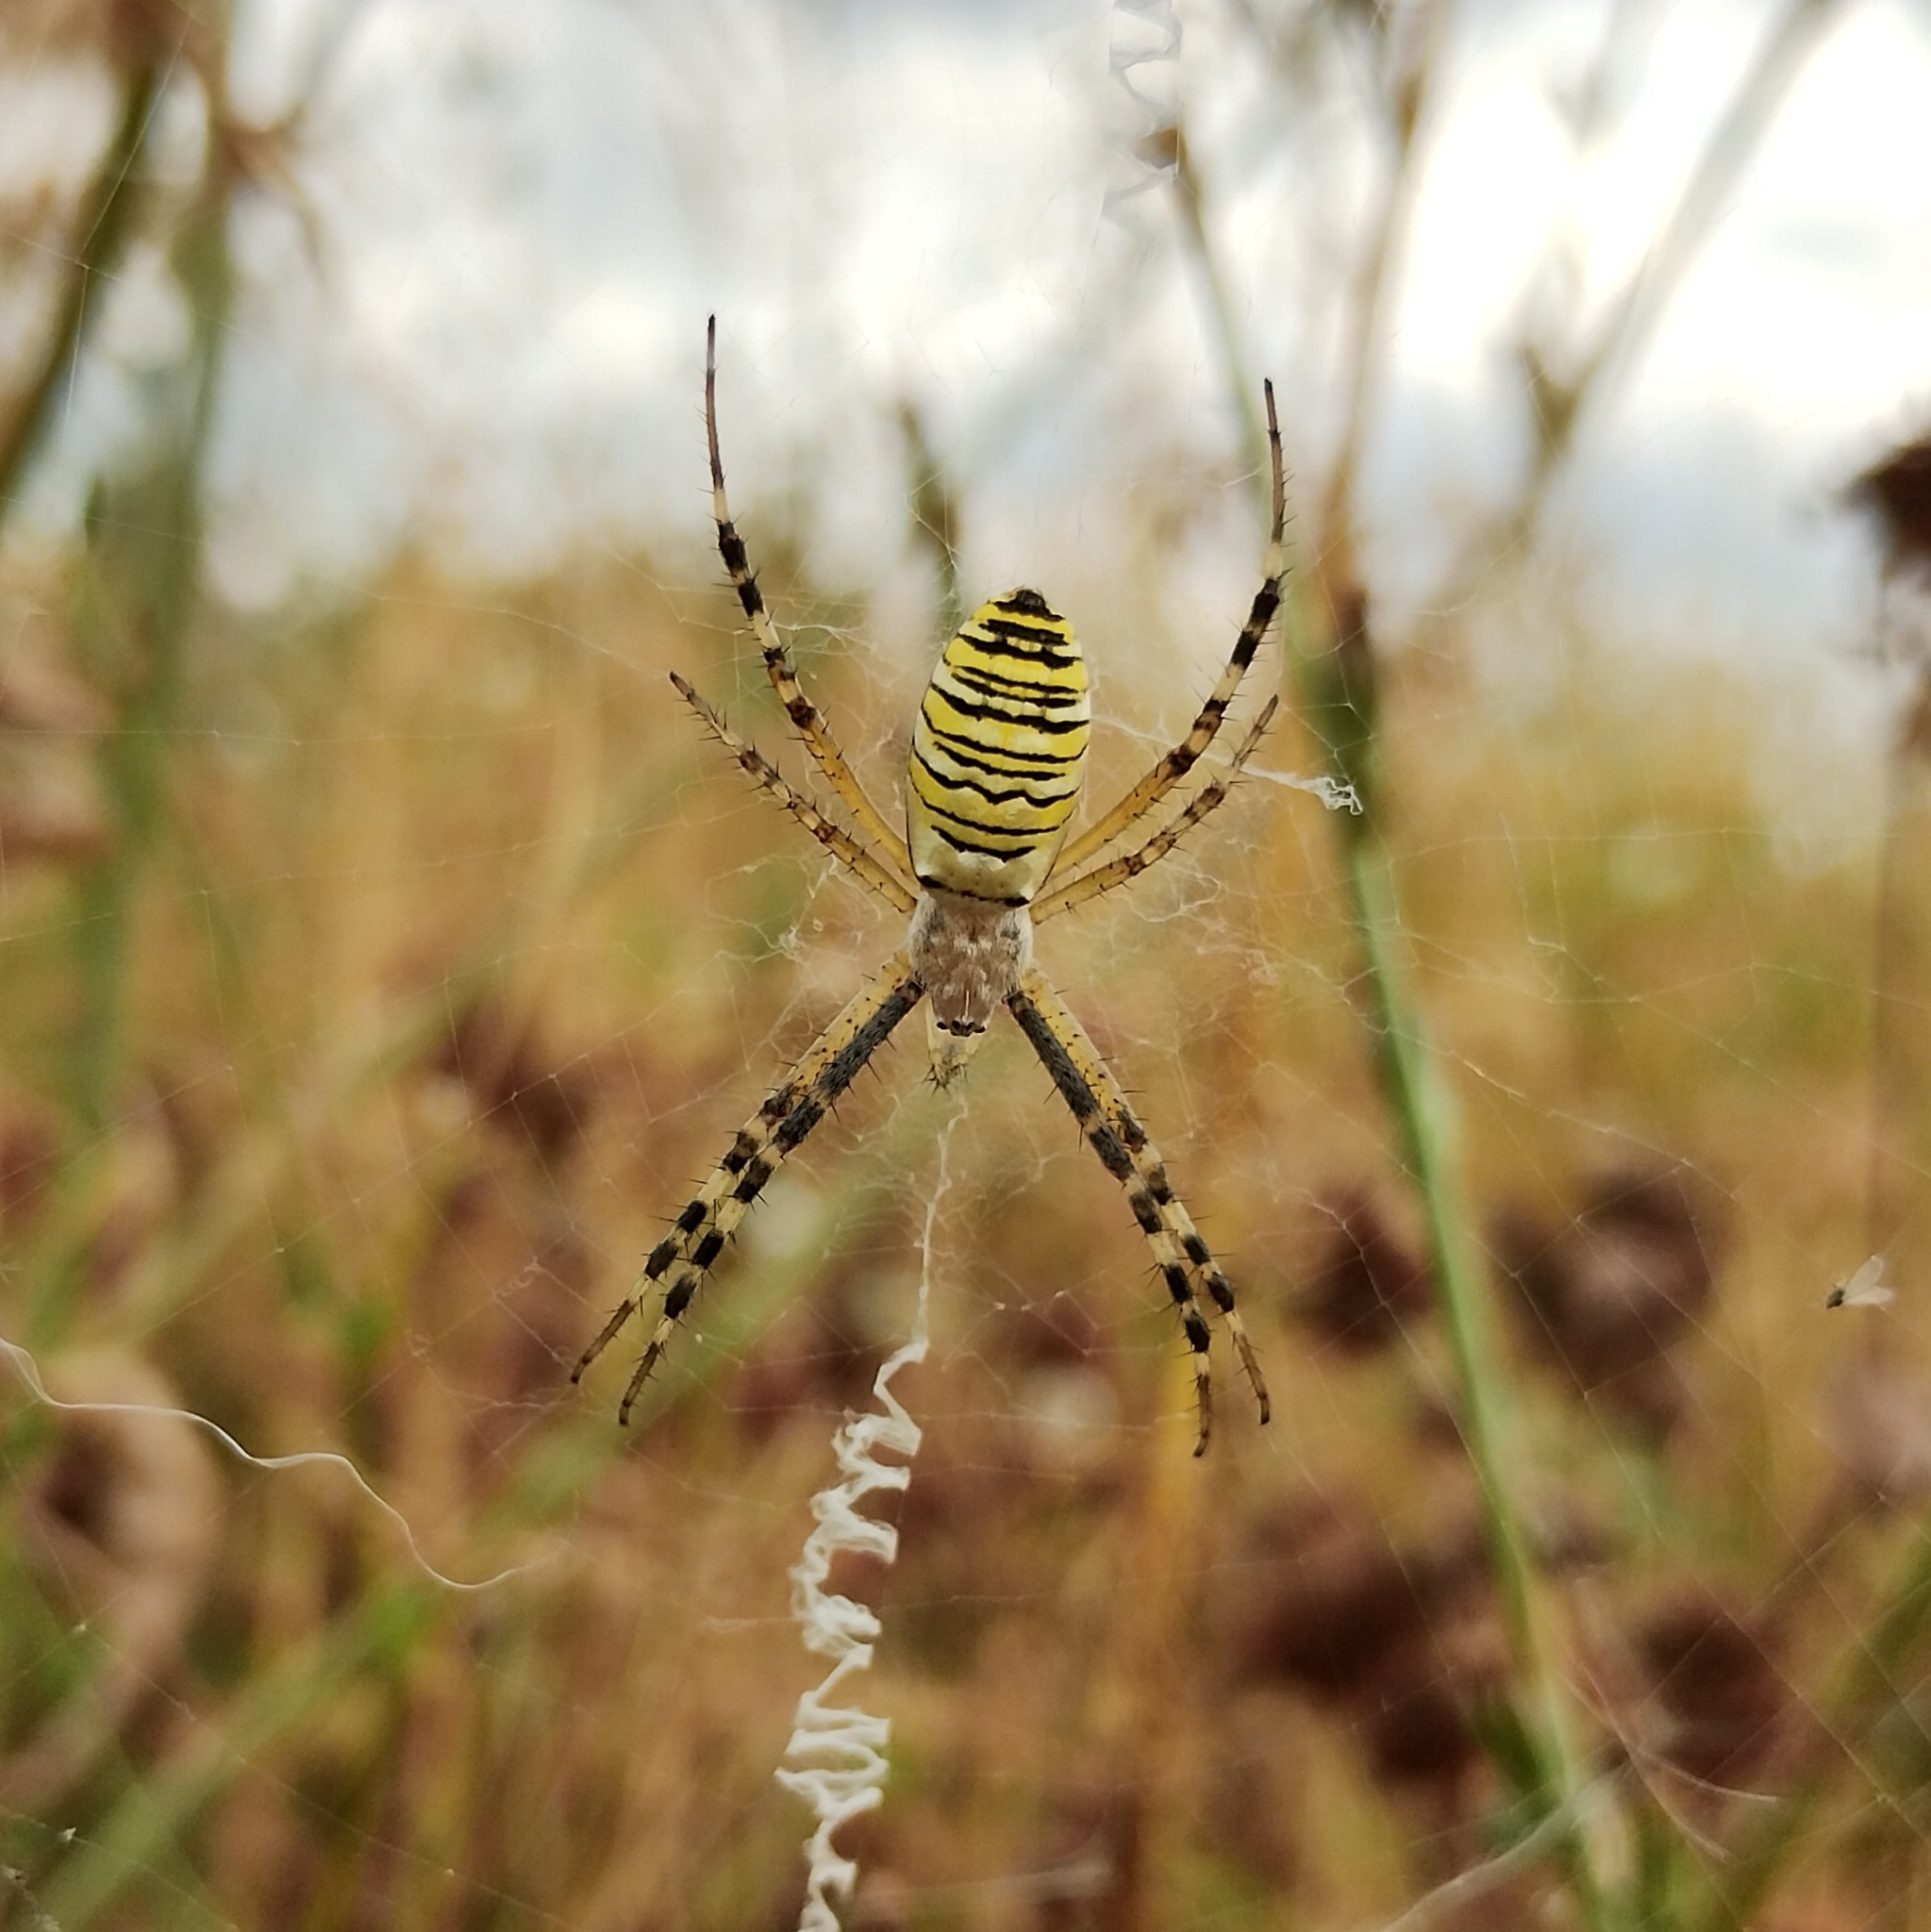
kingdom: Animalia
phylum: Arthropoda
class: Arachnida
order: Araneae
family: Araneidae
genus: Argiope
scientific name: Argiope bruennichi
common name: Wasp spider
